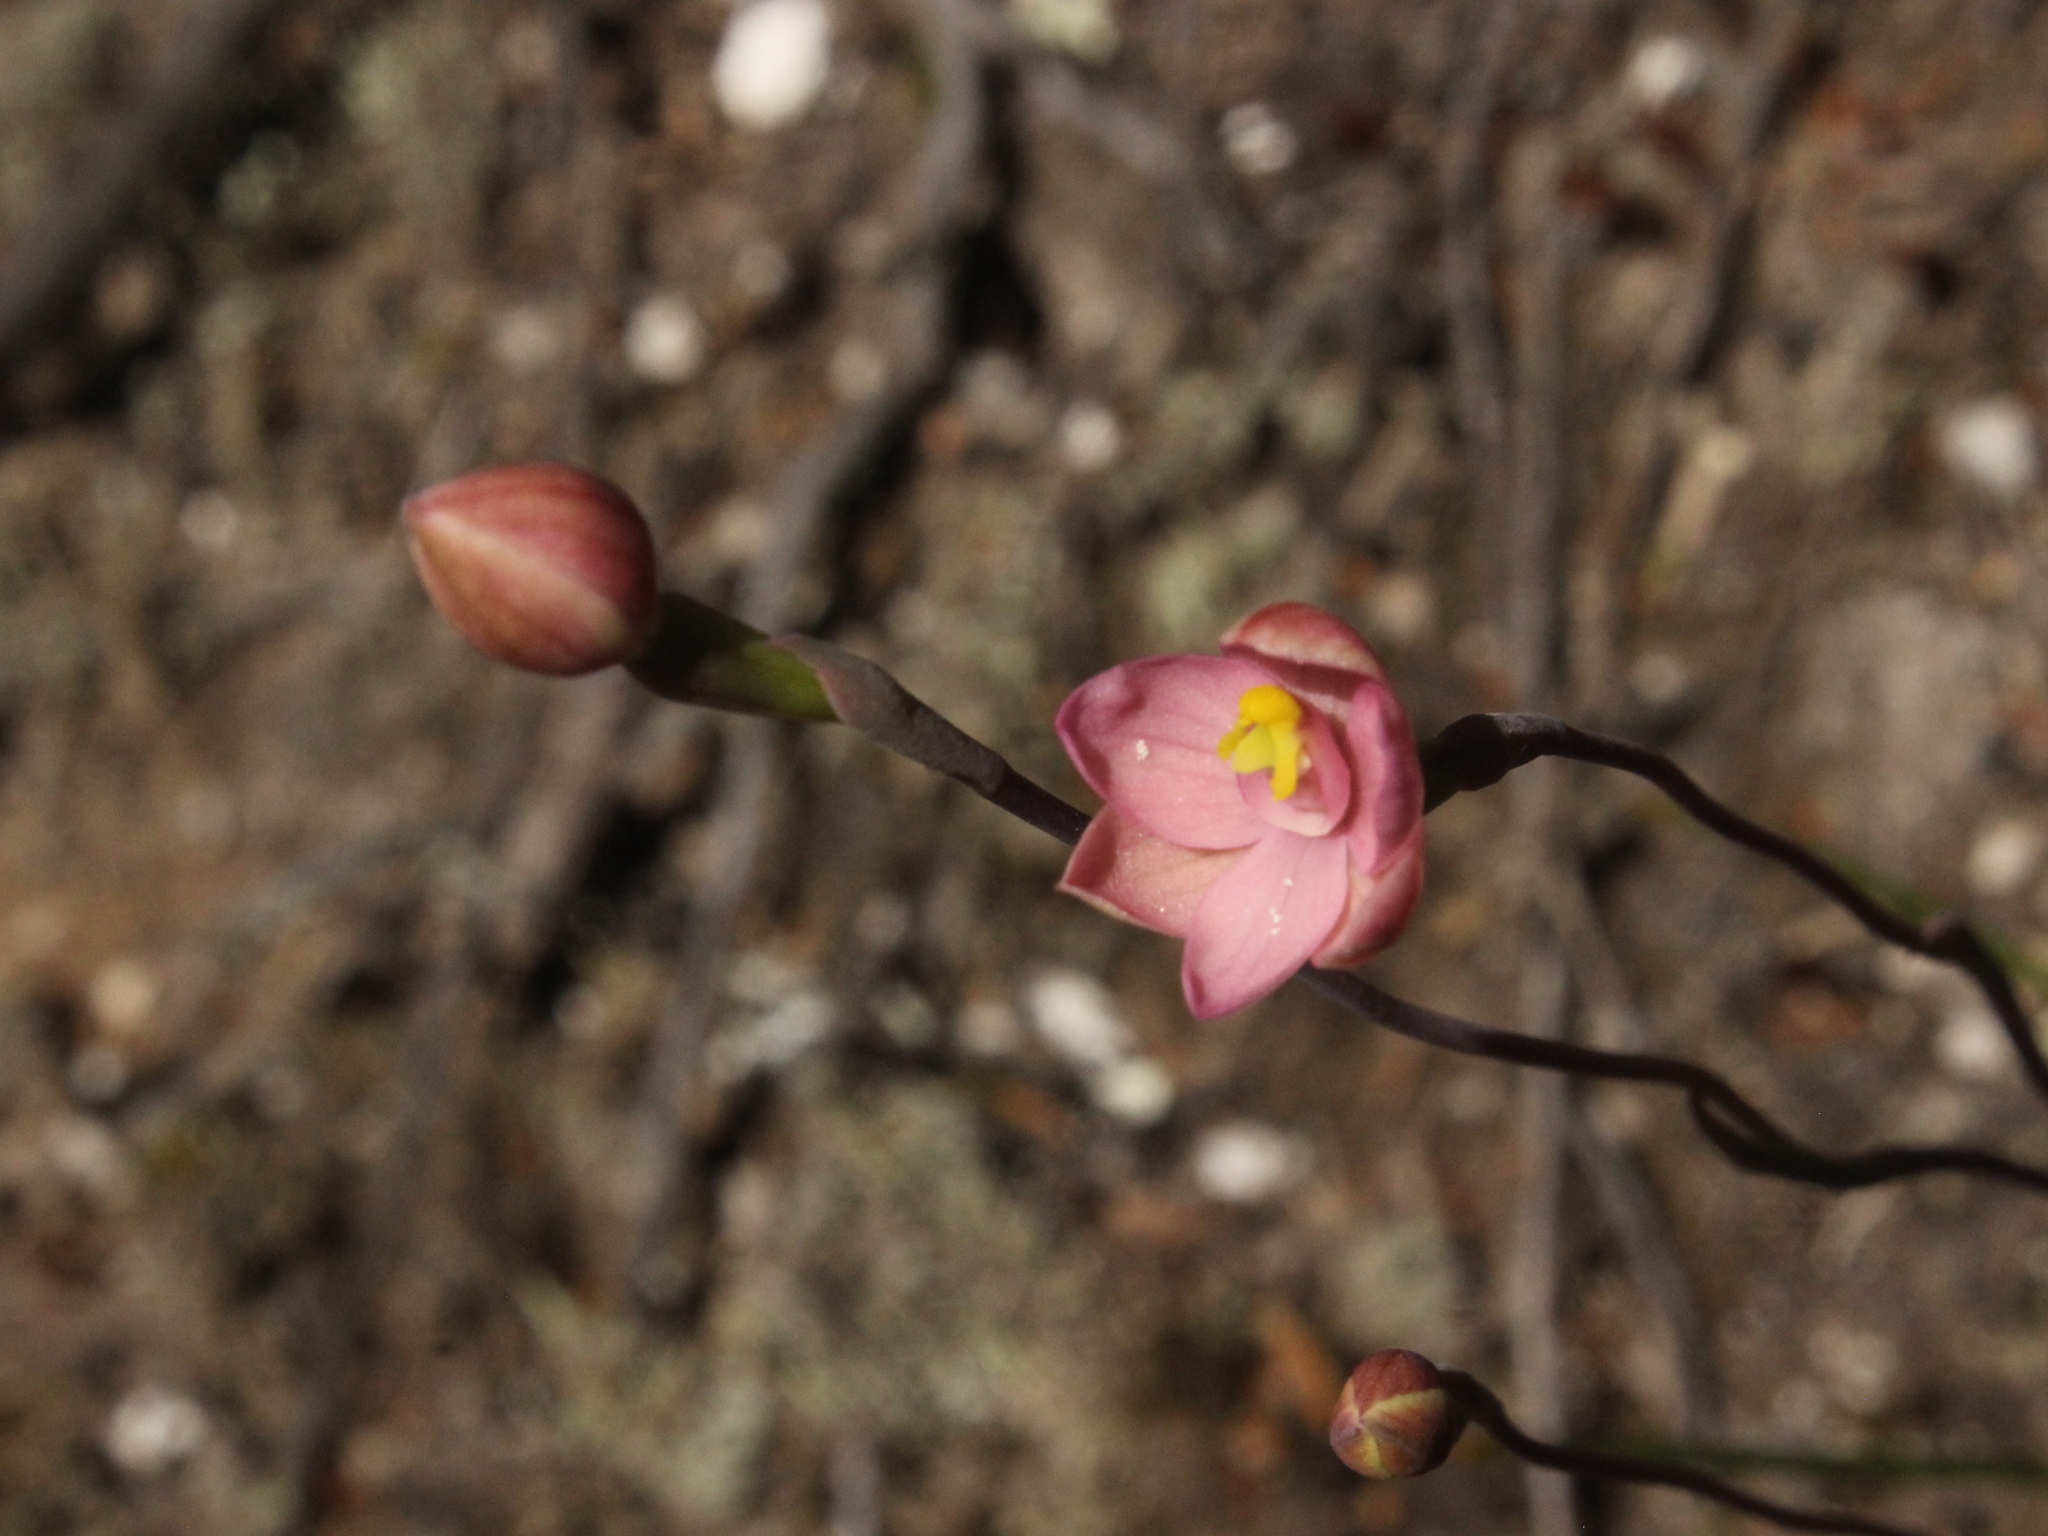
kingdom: Plantae
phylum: Tracheophyta
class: Liliopsida
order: Asparagales
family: Orchidaceae
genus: Thelymitra
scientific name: Thelymitra carnea
